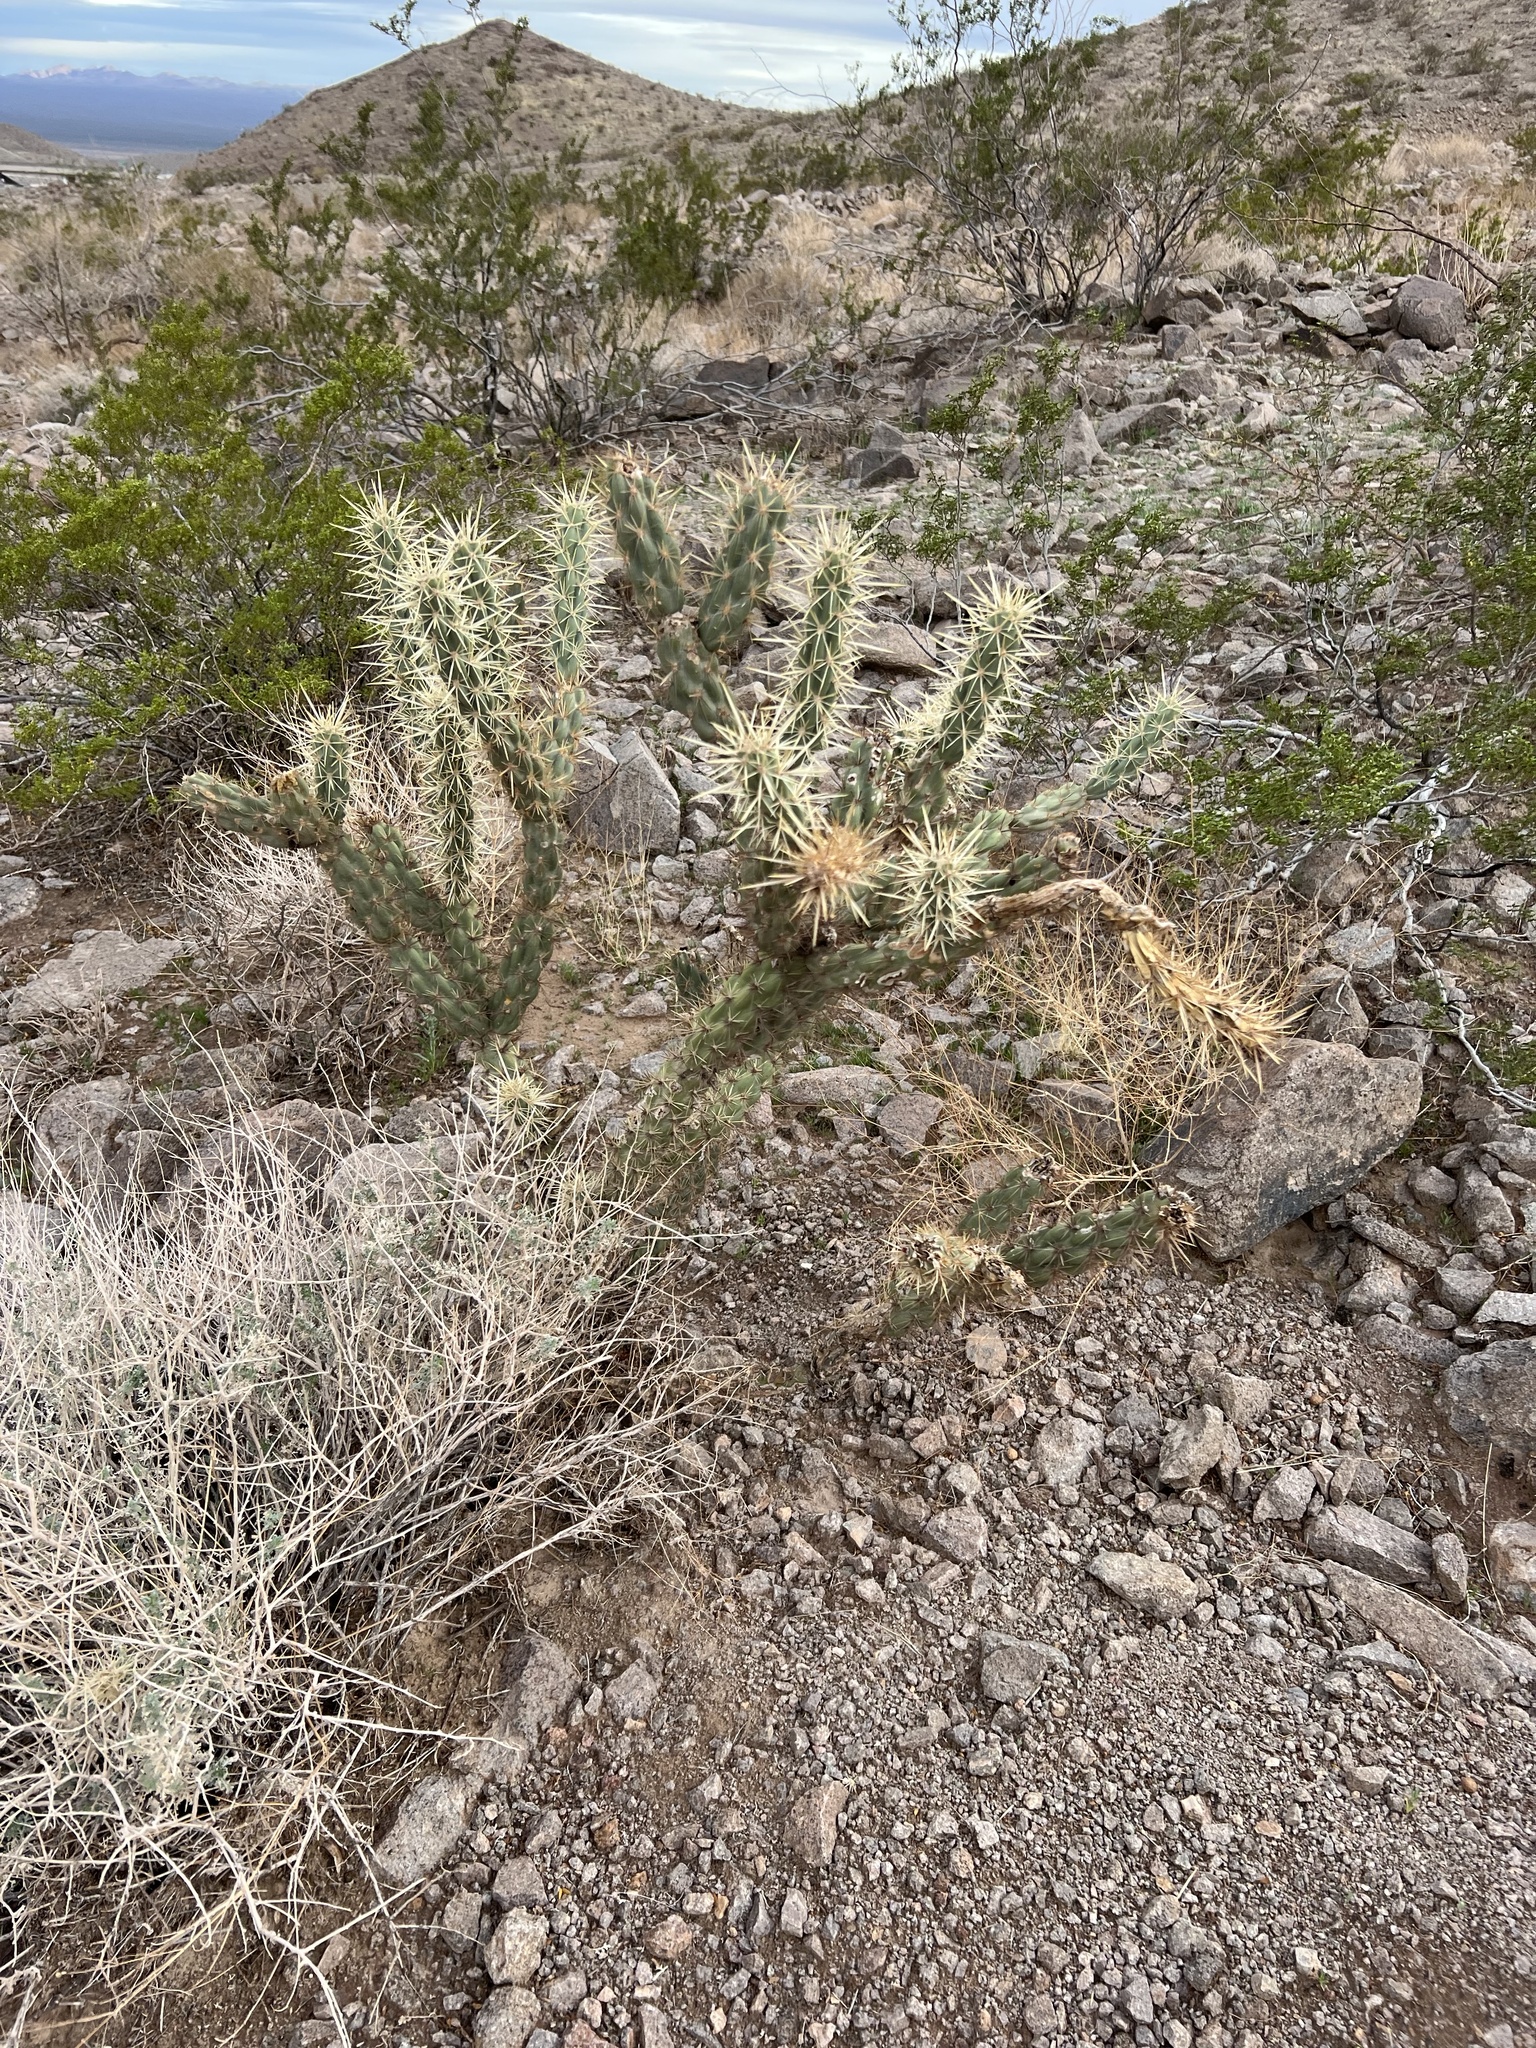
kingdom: Plantae
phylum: Tracheophyta
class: Magnoliopsida
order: Caryophyllales
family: Cactaceae
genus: Cylindropuntia
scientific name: Cylindropuntia acanthocarpa
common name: Buckhorn cholla
